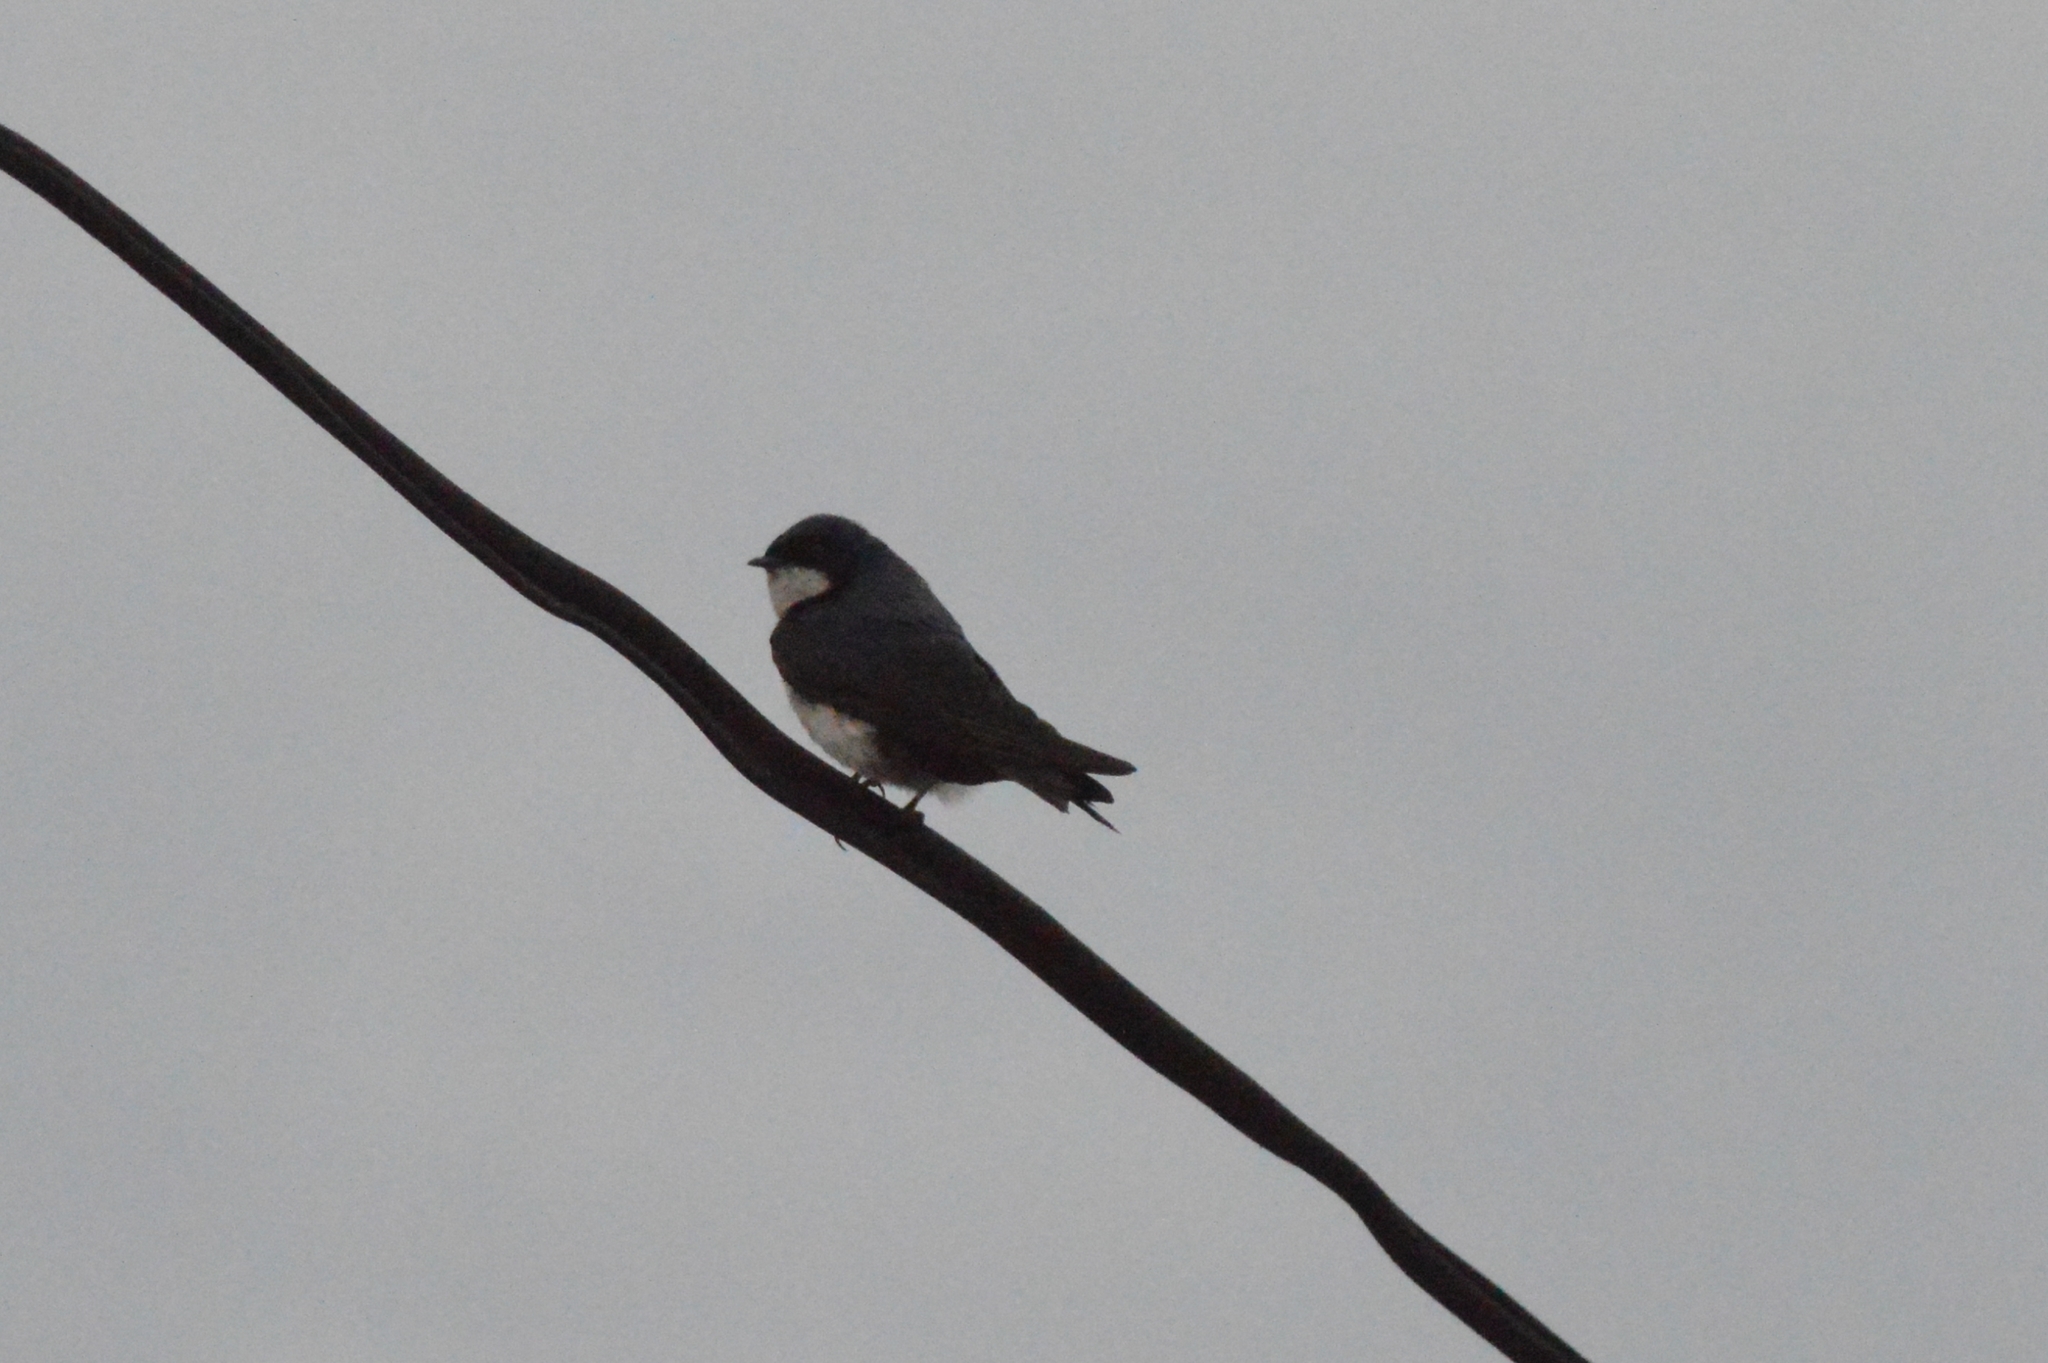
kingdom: Animalia
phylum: Chordata
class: Aves
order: Passeriformes
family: Hirundinidae
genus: Notiochelidon
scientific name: Notiochelidon cyanoleuca
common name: Blue-and-white swallow
